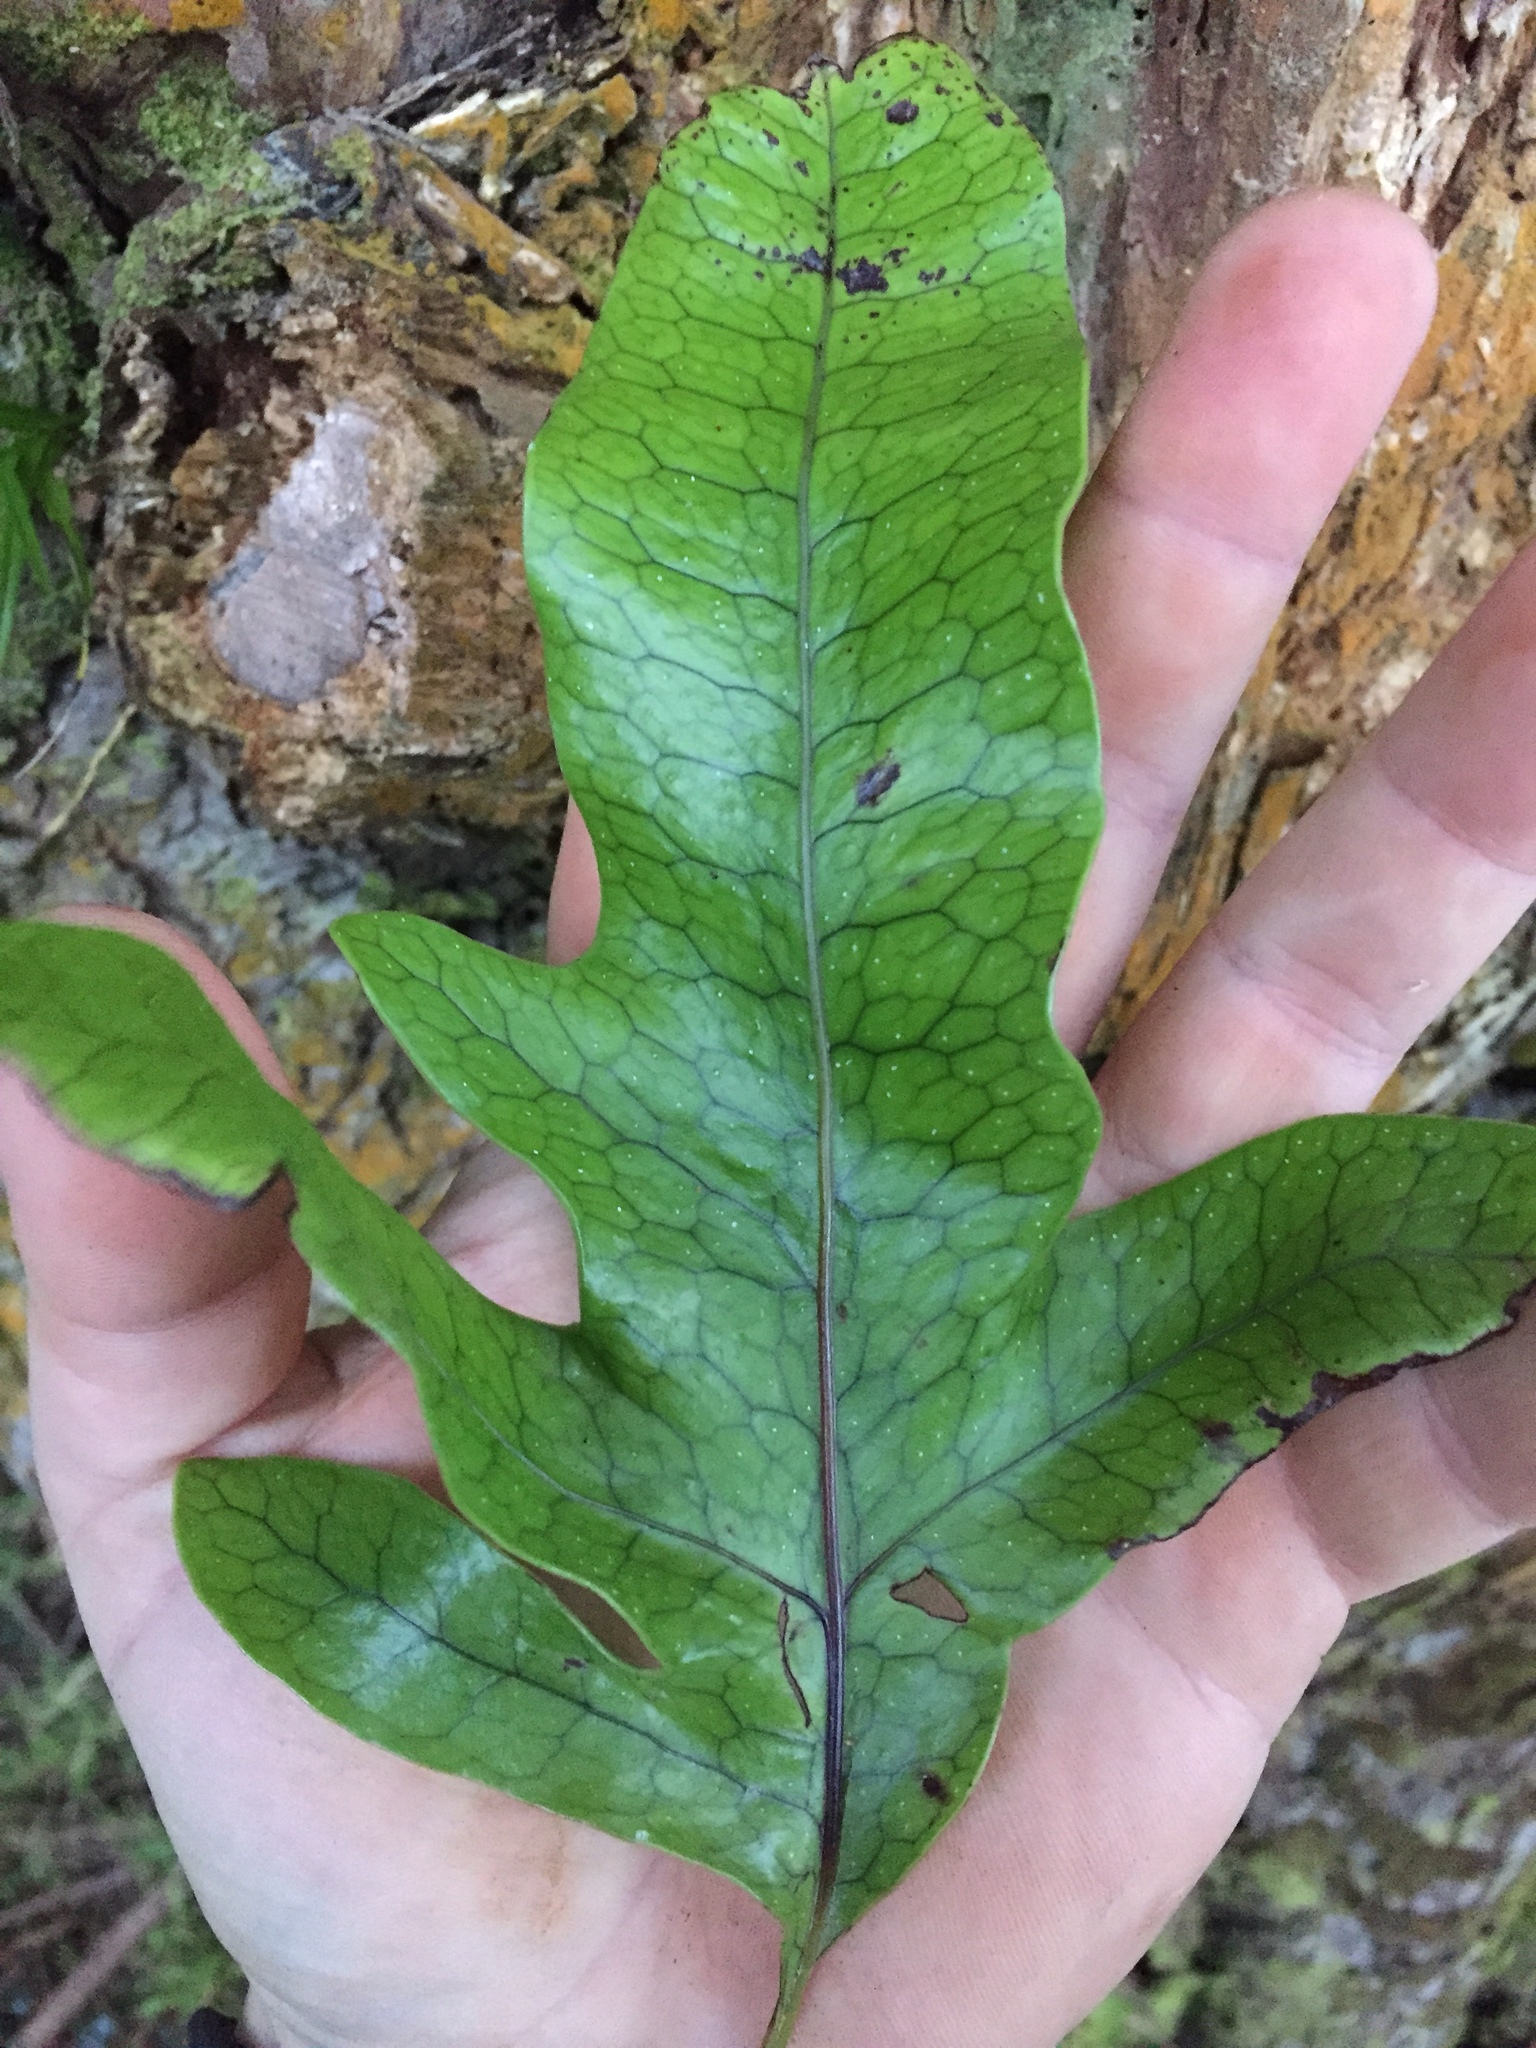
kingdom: Plantae
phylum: Tracheophyta
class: Polypodiopsida
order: Polypodiales
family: Polypodiaceae
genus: Lecanopteris
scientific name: Lecanopteris pustulata
